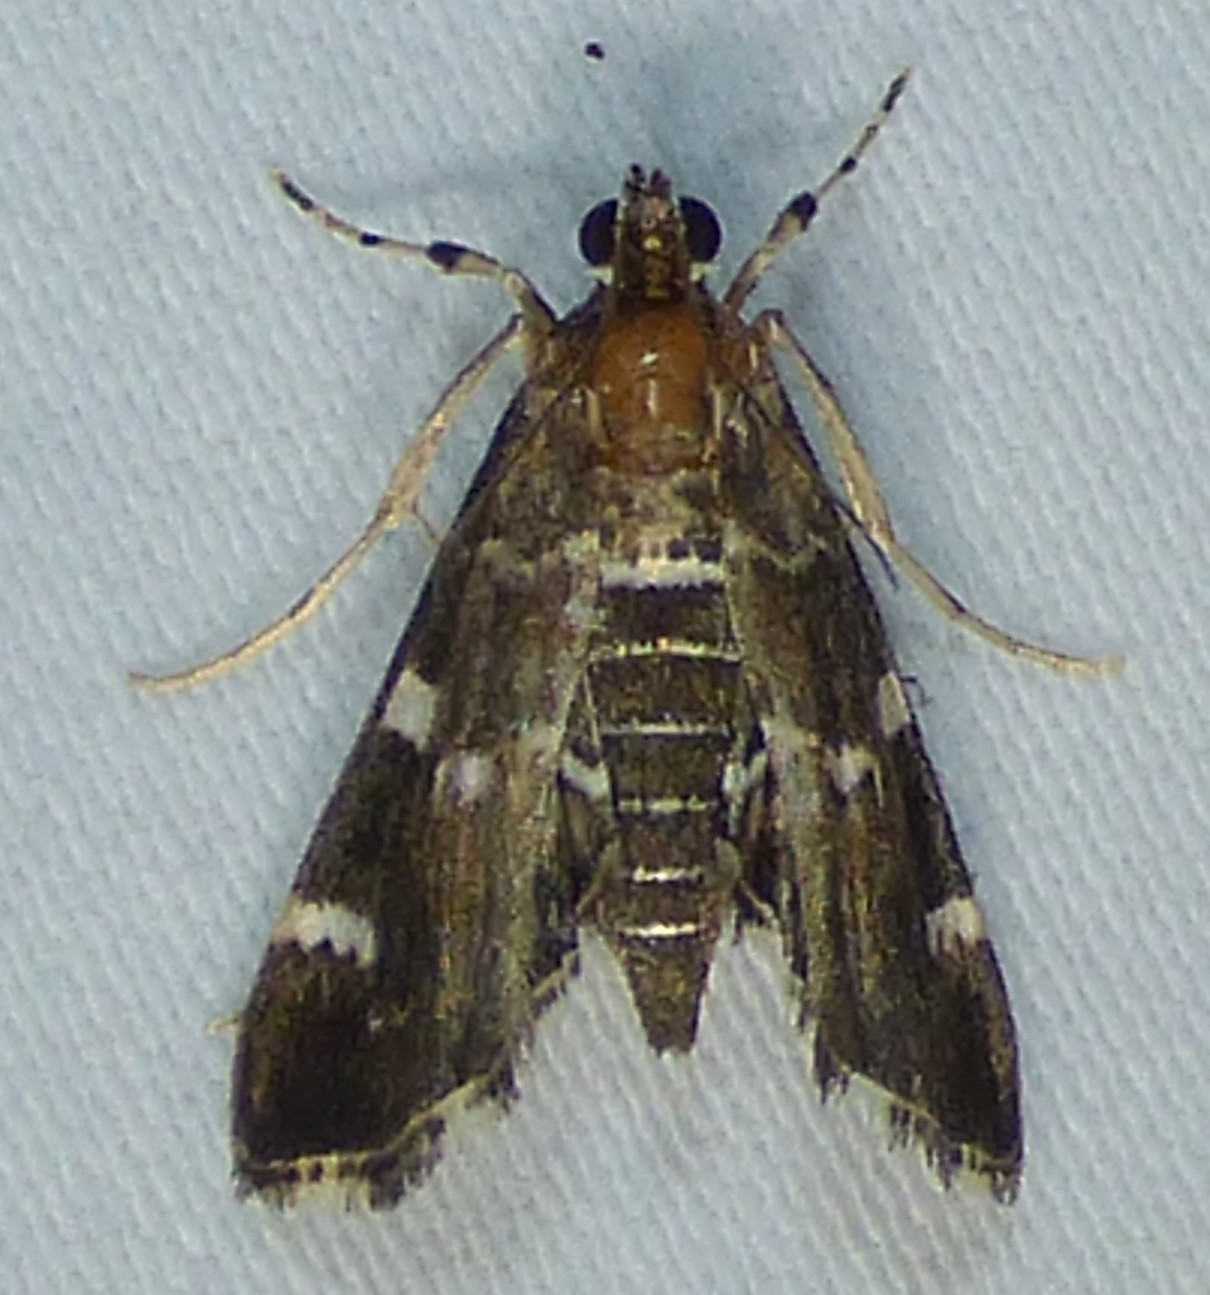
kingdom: Animalia
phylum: Arthropoda
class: Insecta
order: Lepidoptera
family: Crambidae
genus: Hymenia
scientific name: Hymenia perspectalis
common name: Spotted beet webworm
